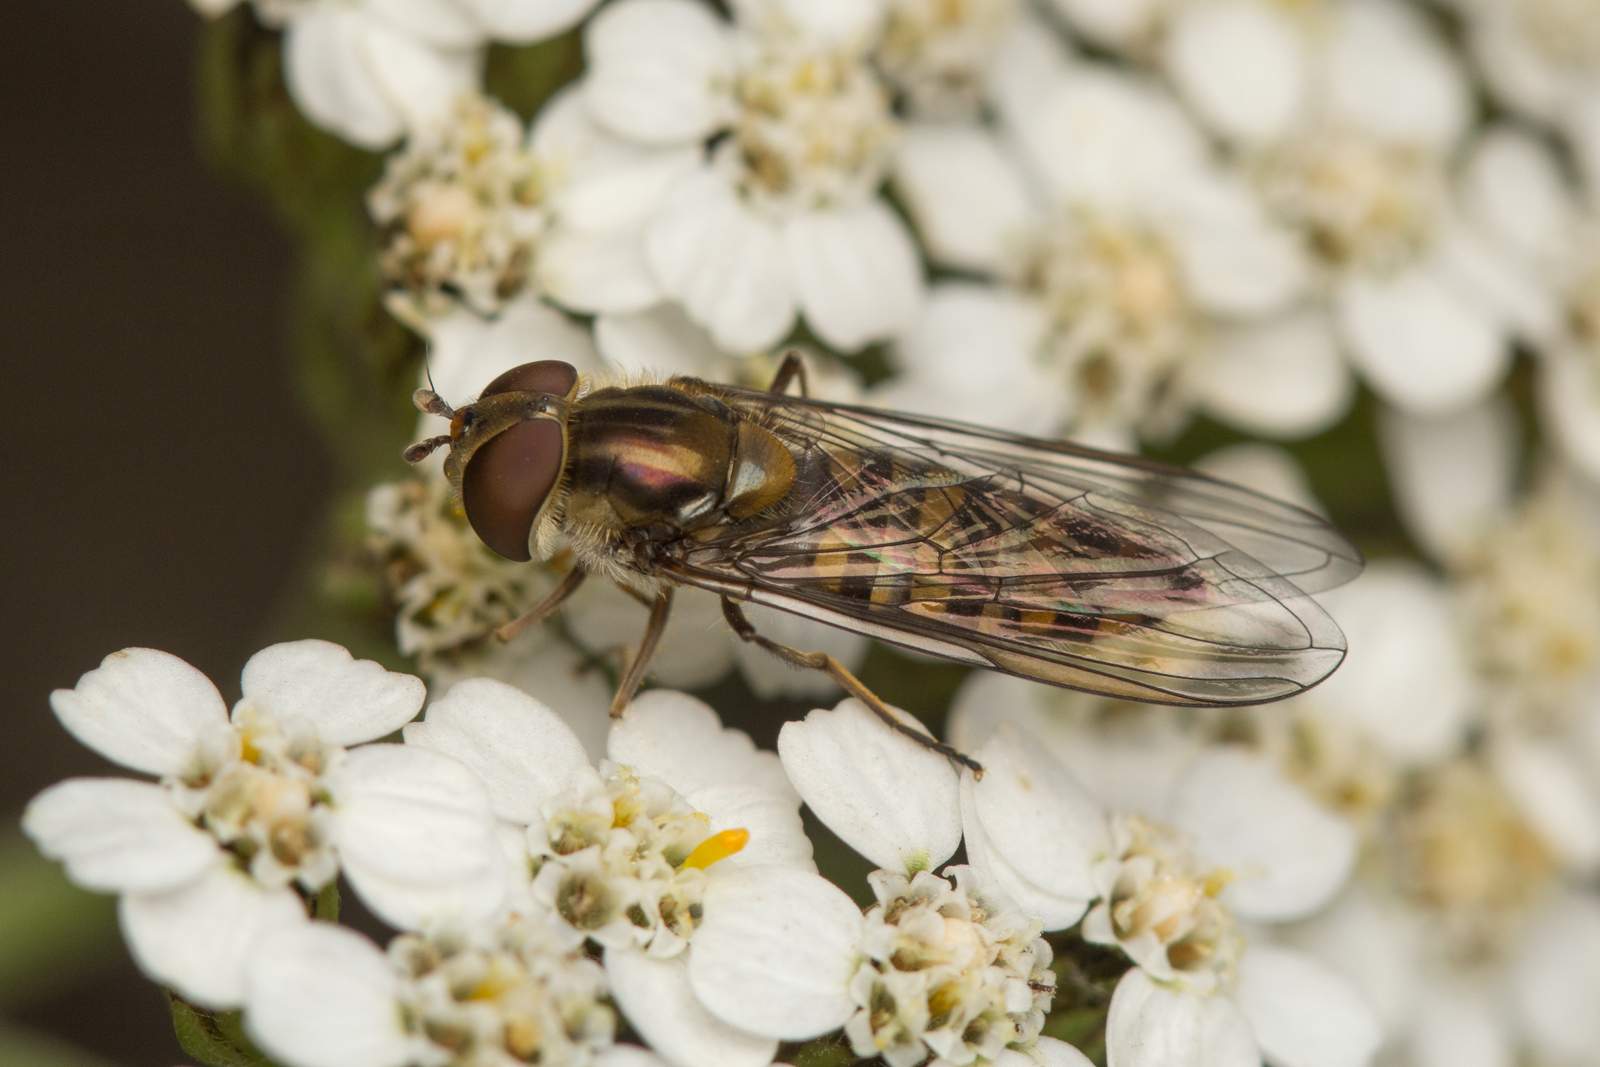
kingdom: Animalia
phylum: Arthropoda
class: Insecta
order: Diptera
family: Syrphidae
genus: Episyrphus
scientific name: Episyrphus balteatus
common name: Marmalade hoverfly
